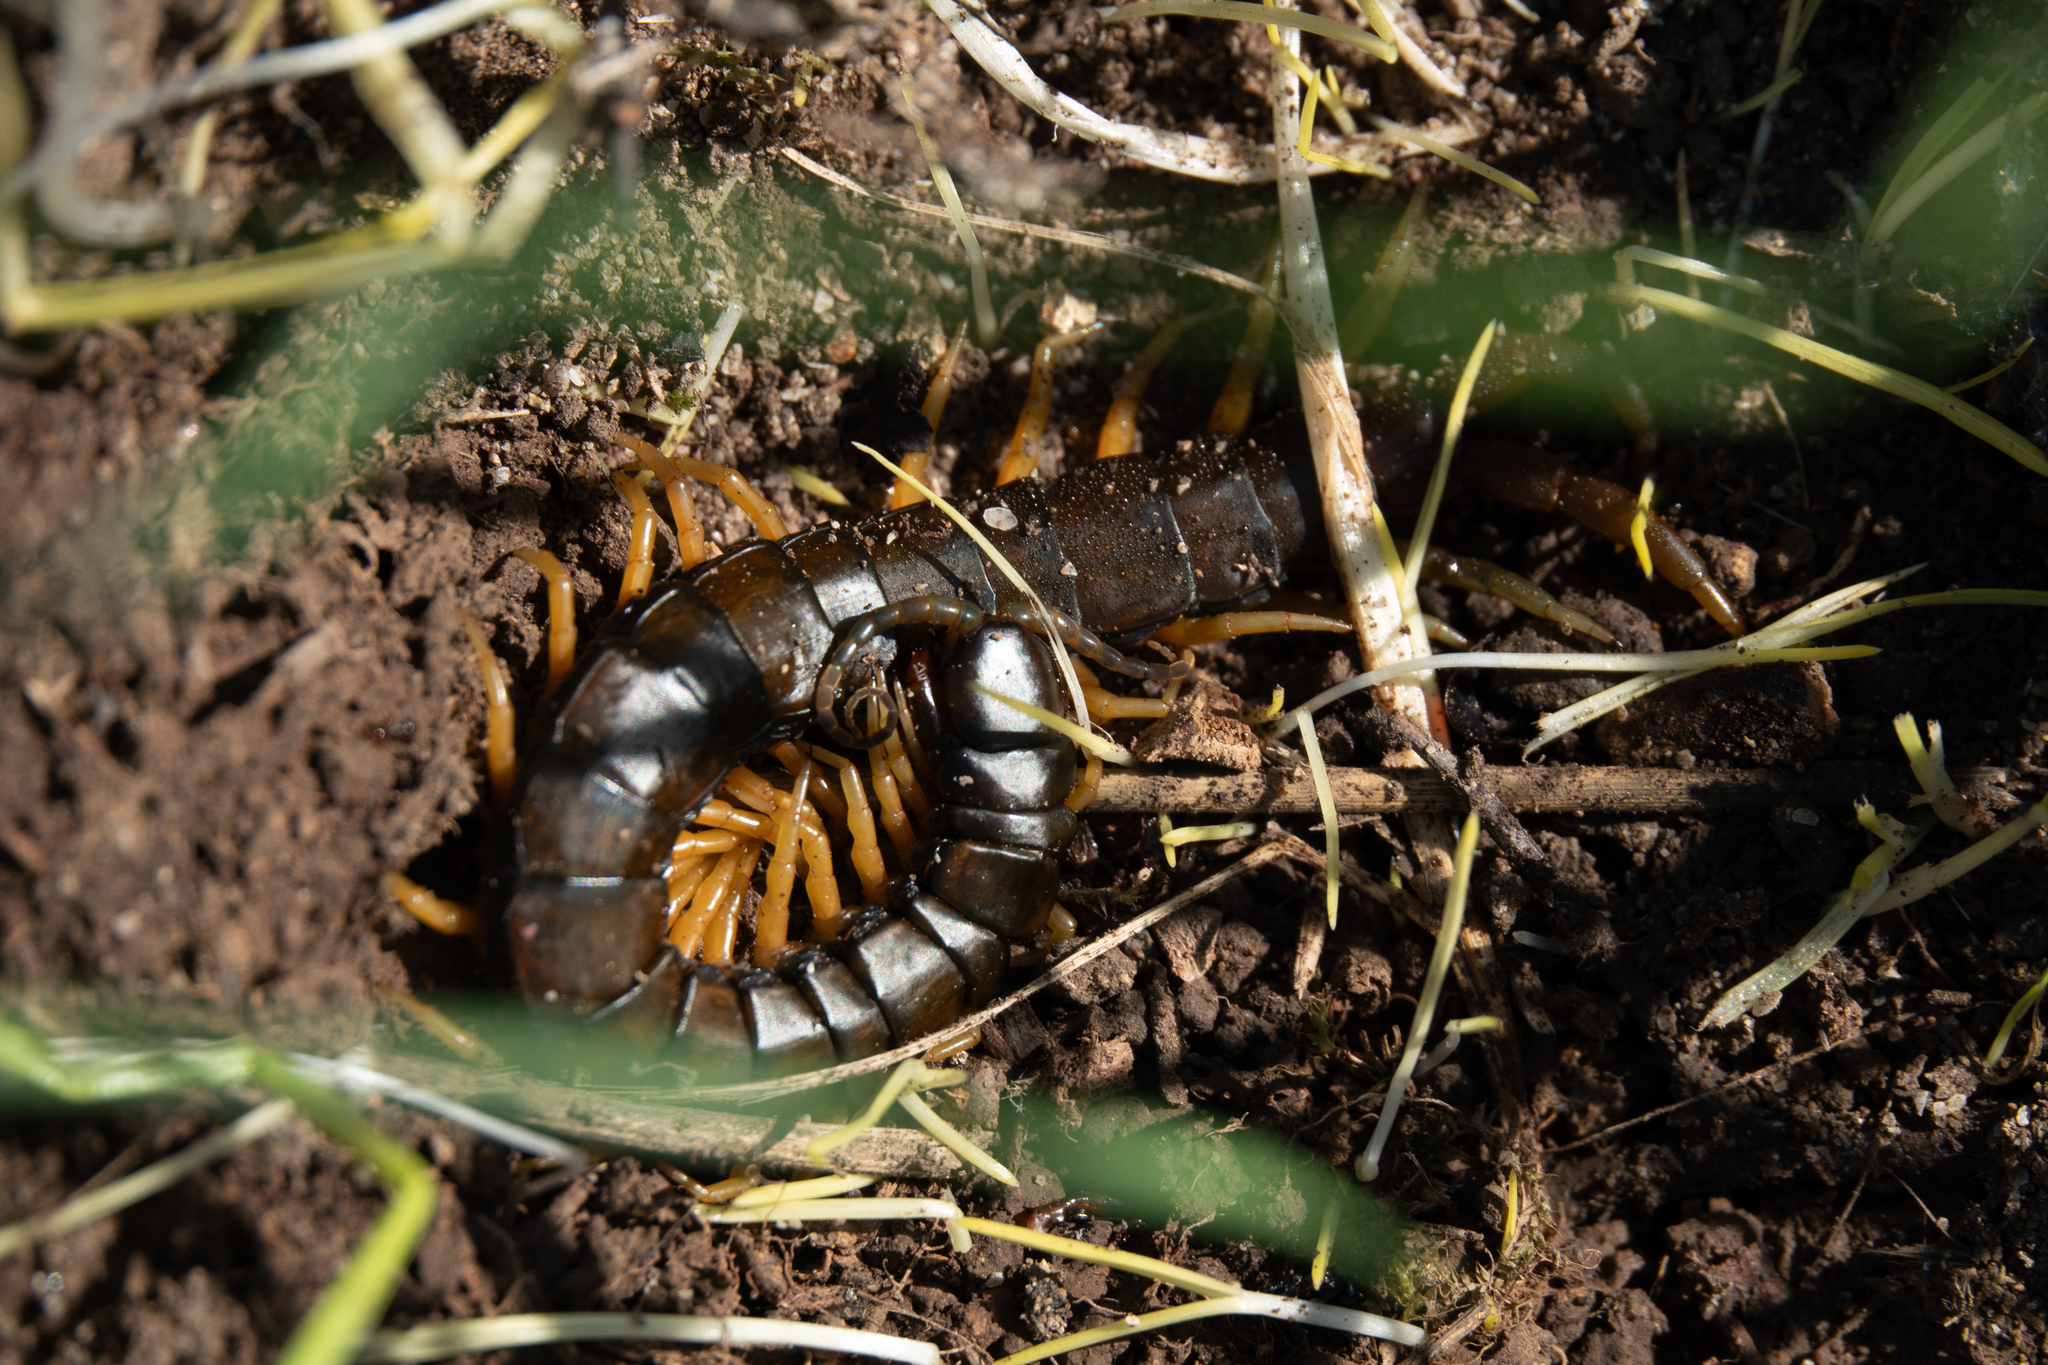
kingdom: Animalia
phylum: Arthropoda
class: Chilopoda
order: Scolopendromorpha
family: Scolopendridae
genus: Scolopendra
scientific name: Scolopendra cingulata
